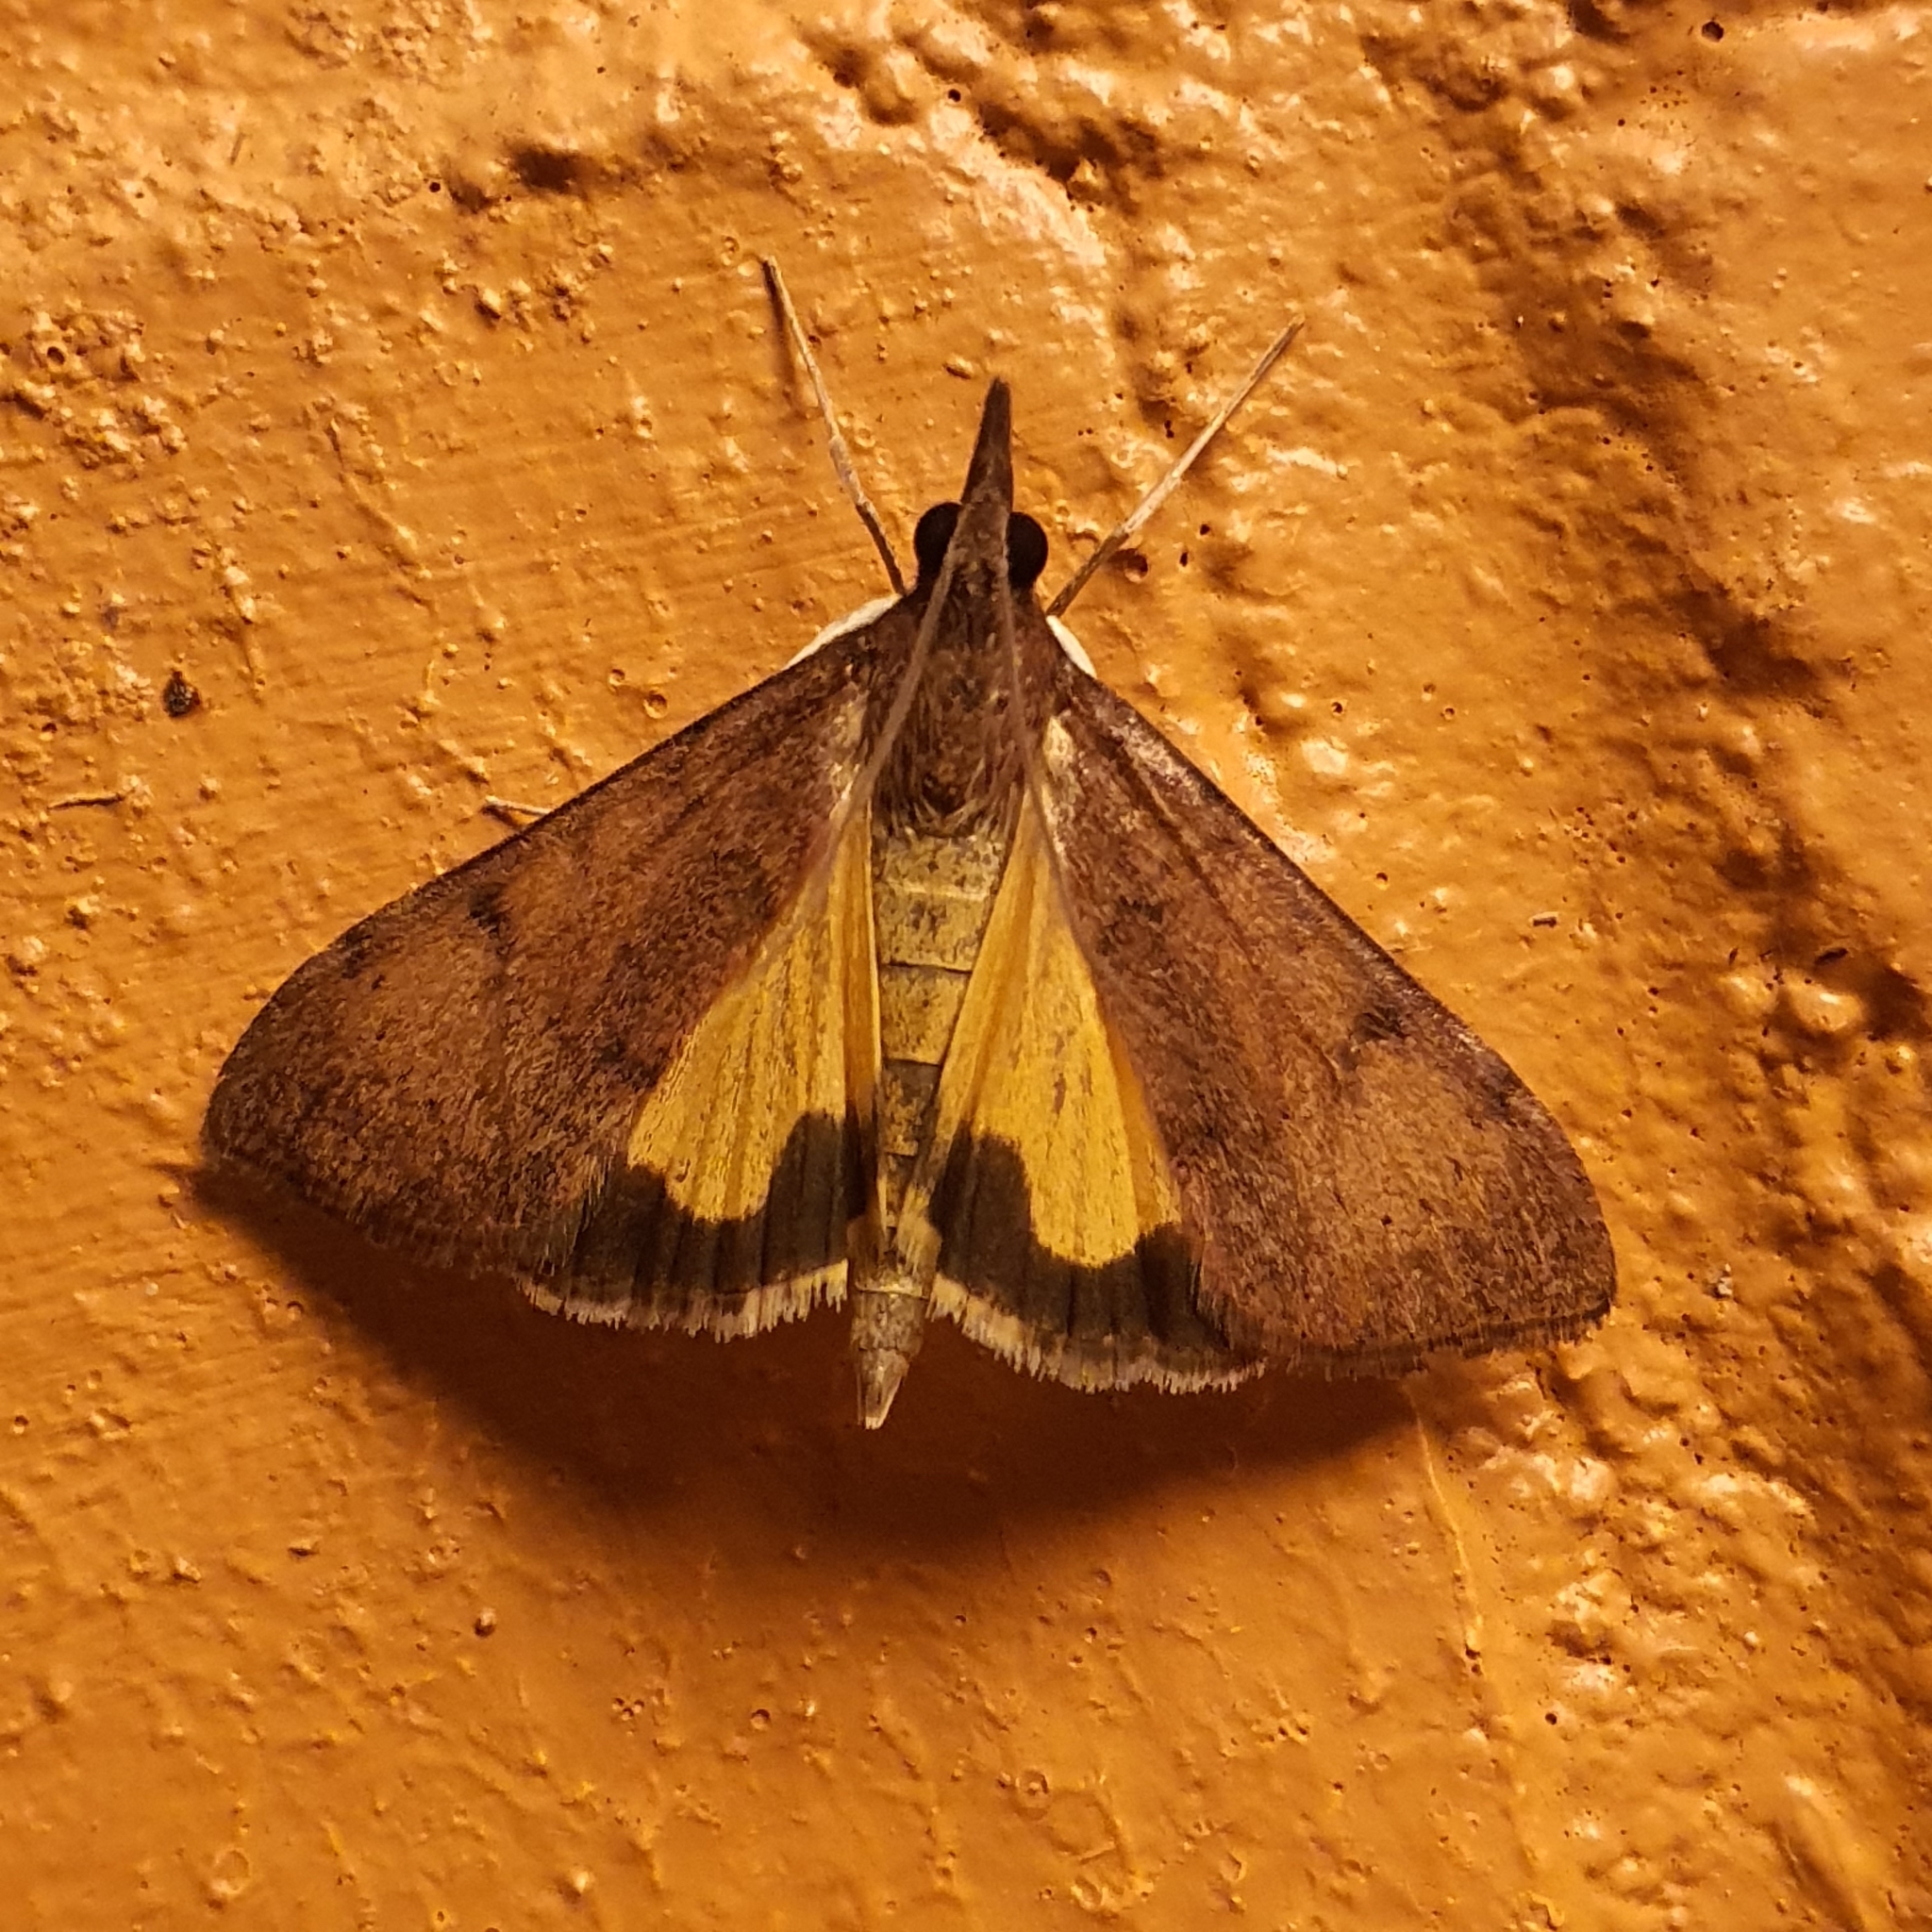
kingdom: Animalia
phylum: Arthropoda
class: Insecta
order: Lepidoptera
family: Crambidae
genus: Uresiphita
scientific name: Uresiphita ornithopteralis
